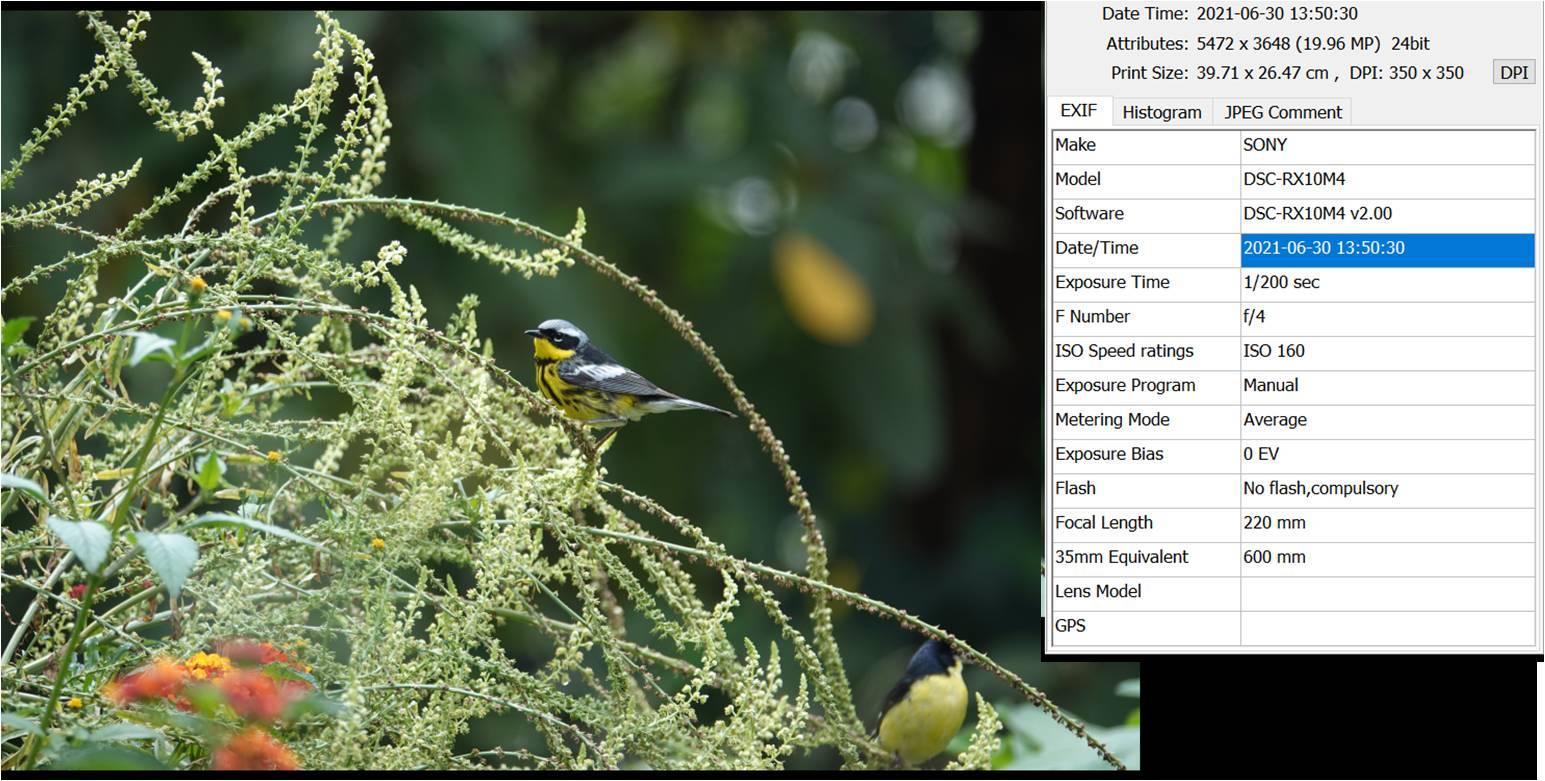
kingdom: Animalia
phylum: Chordata
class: Aves
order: Passeriformes
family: Parulidae
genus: Setophaga
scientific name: Setophaga magnolia
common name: Magnolia warbler
